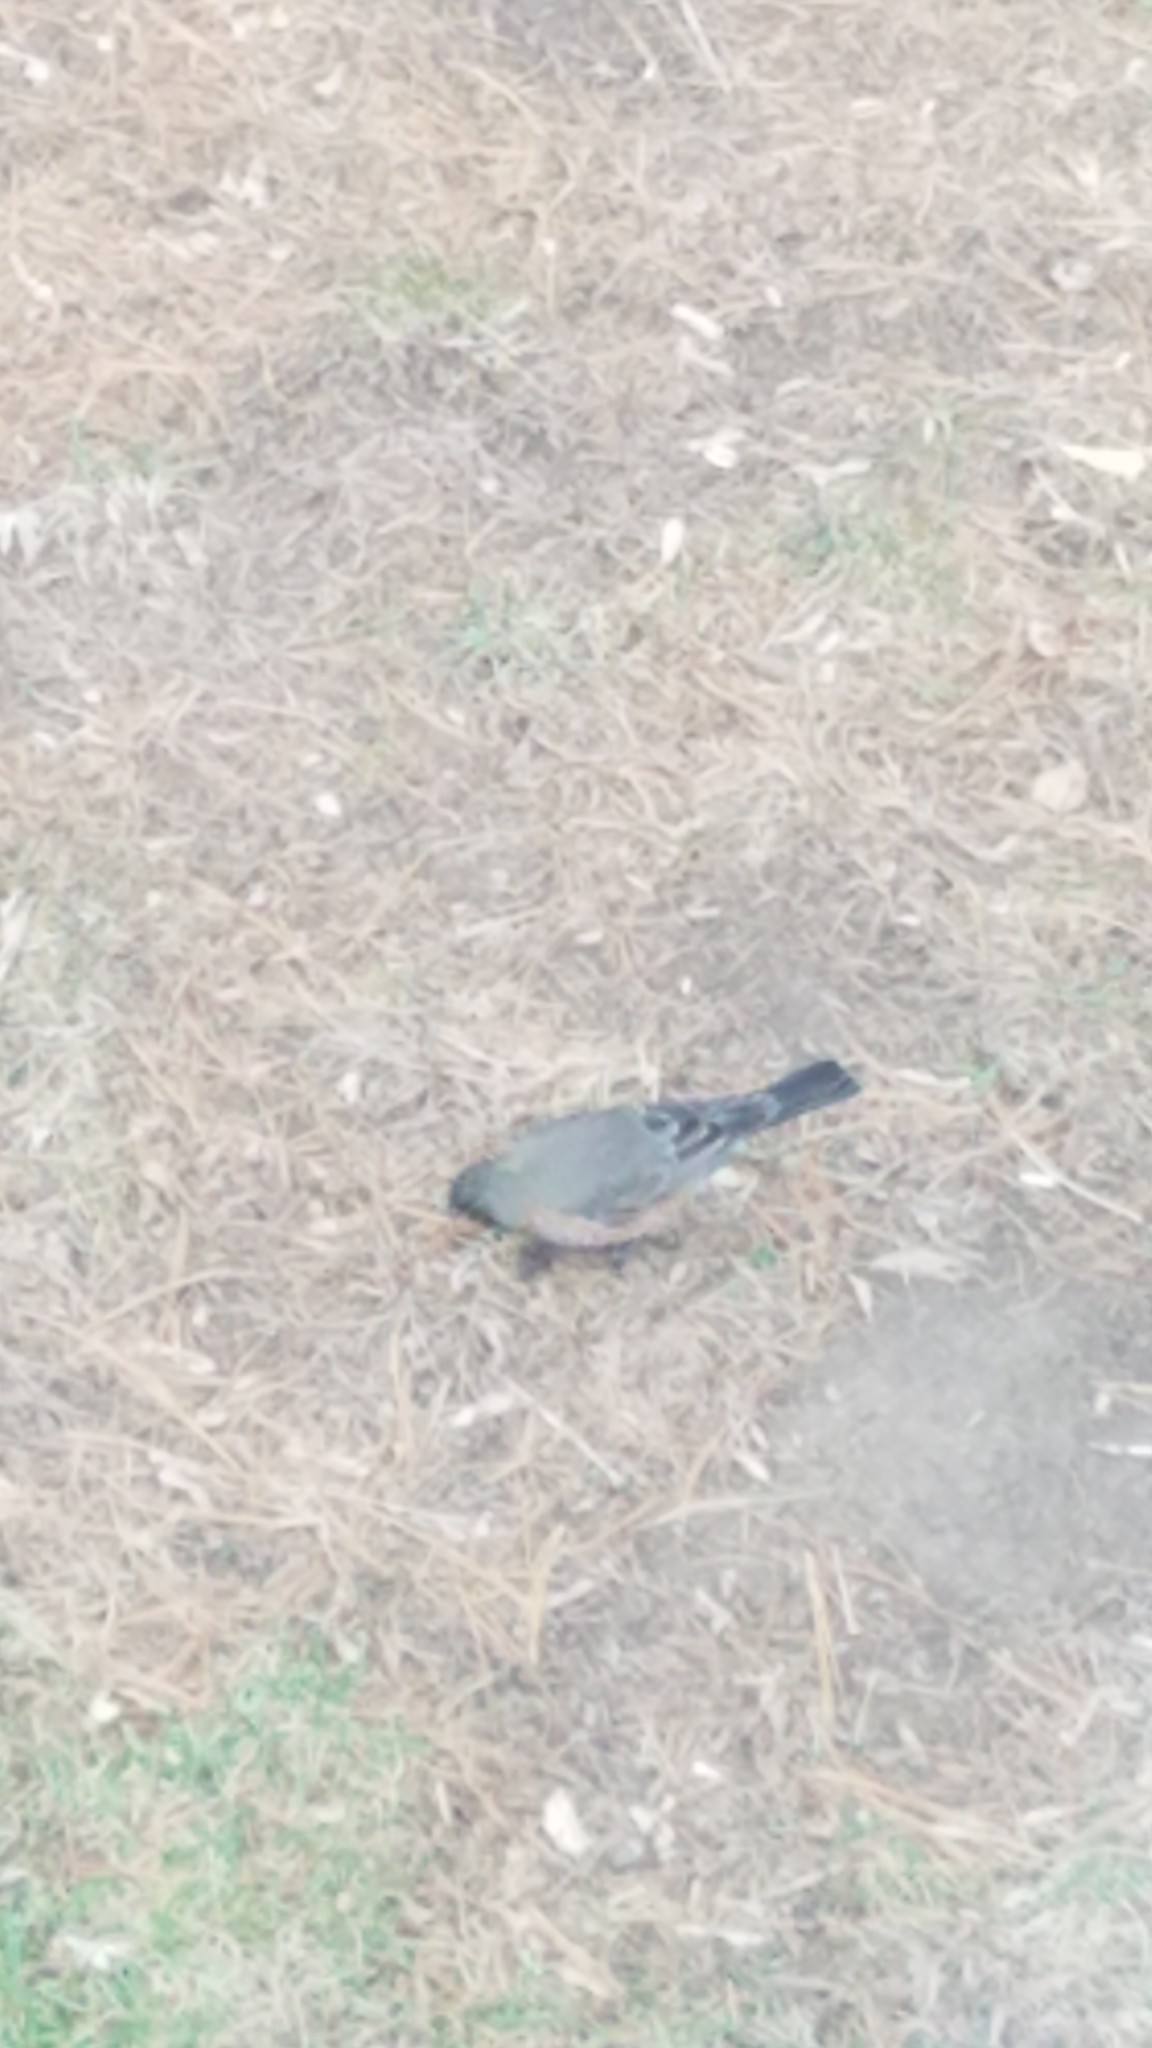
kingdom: Animalia
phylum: Chordata
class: Aves
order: Passeriformes
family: Turdidae
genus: Turdus
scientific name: Turdus migratorius
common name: American robin
